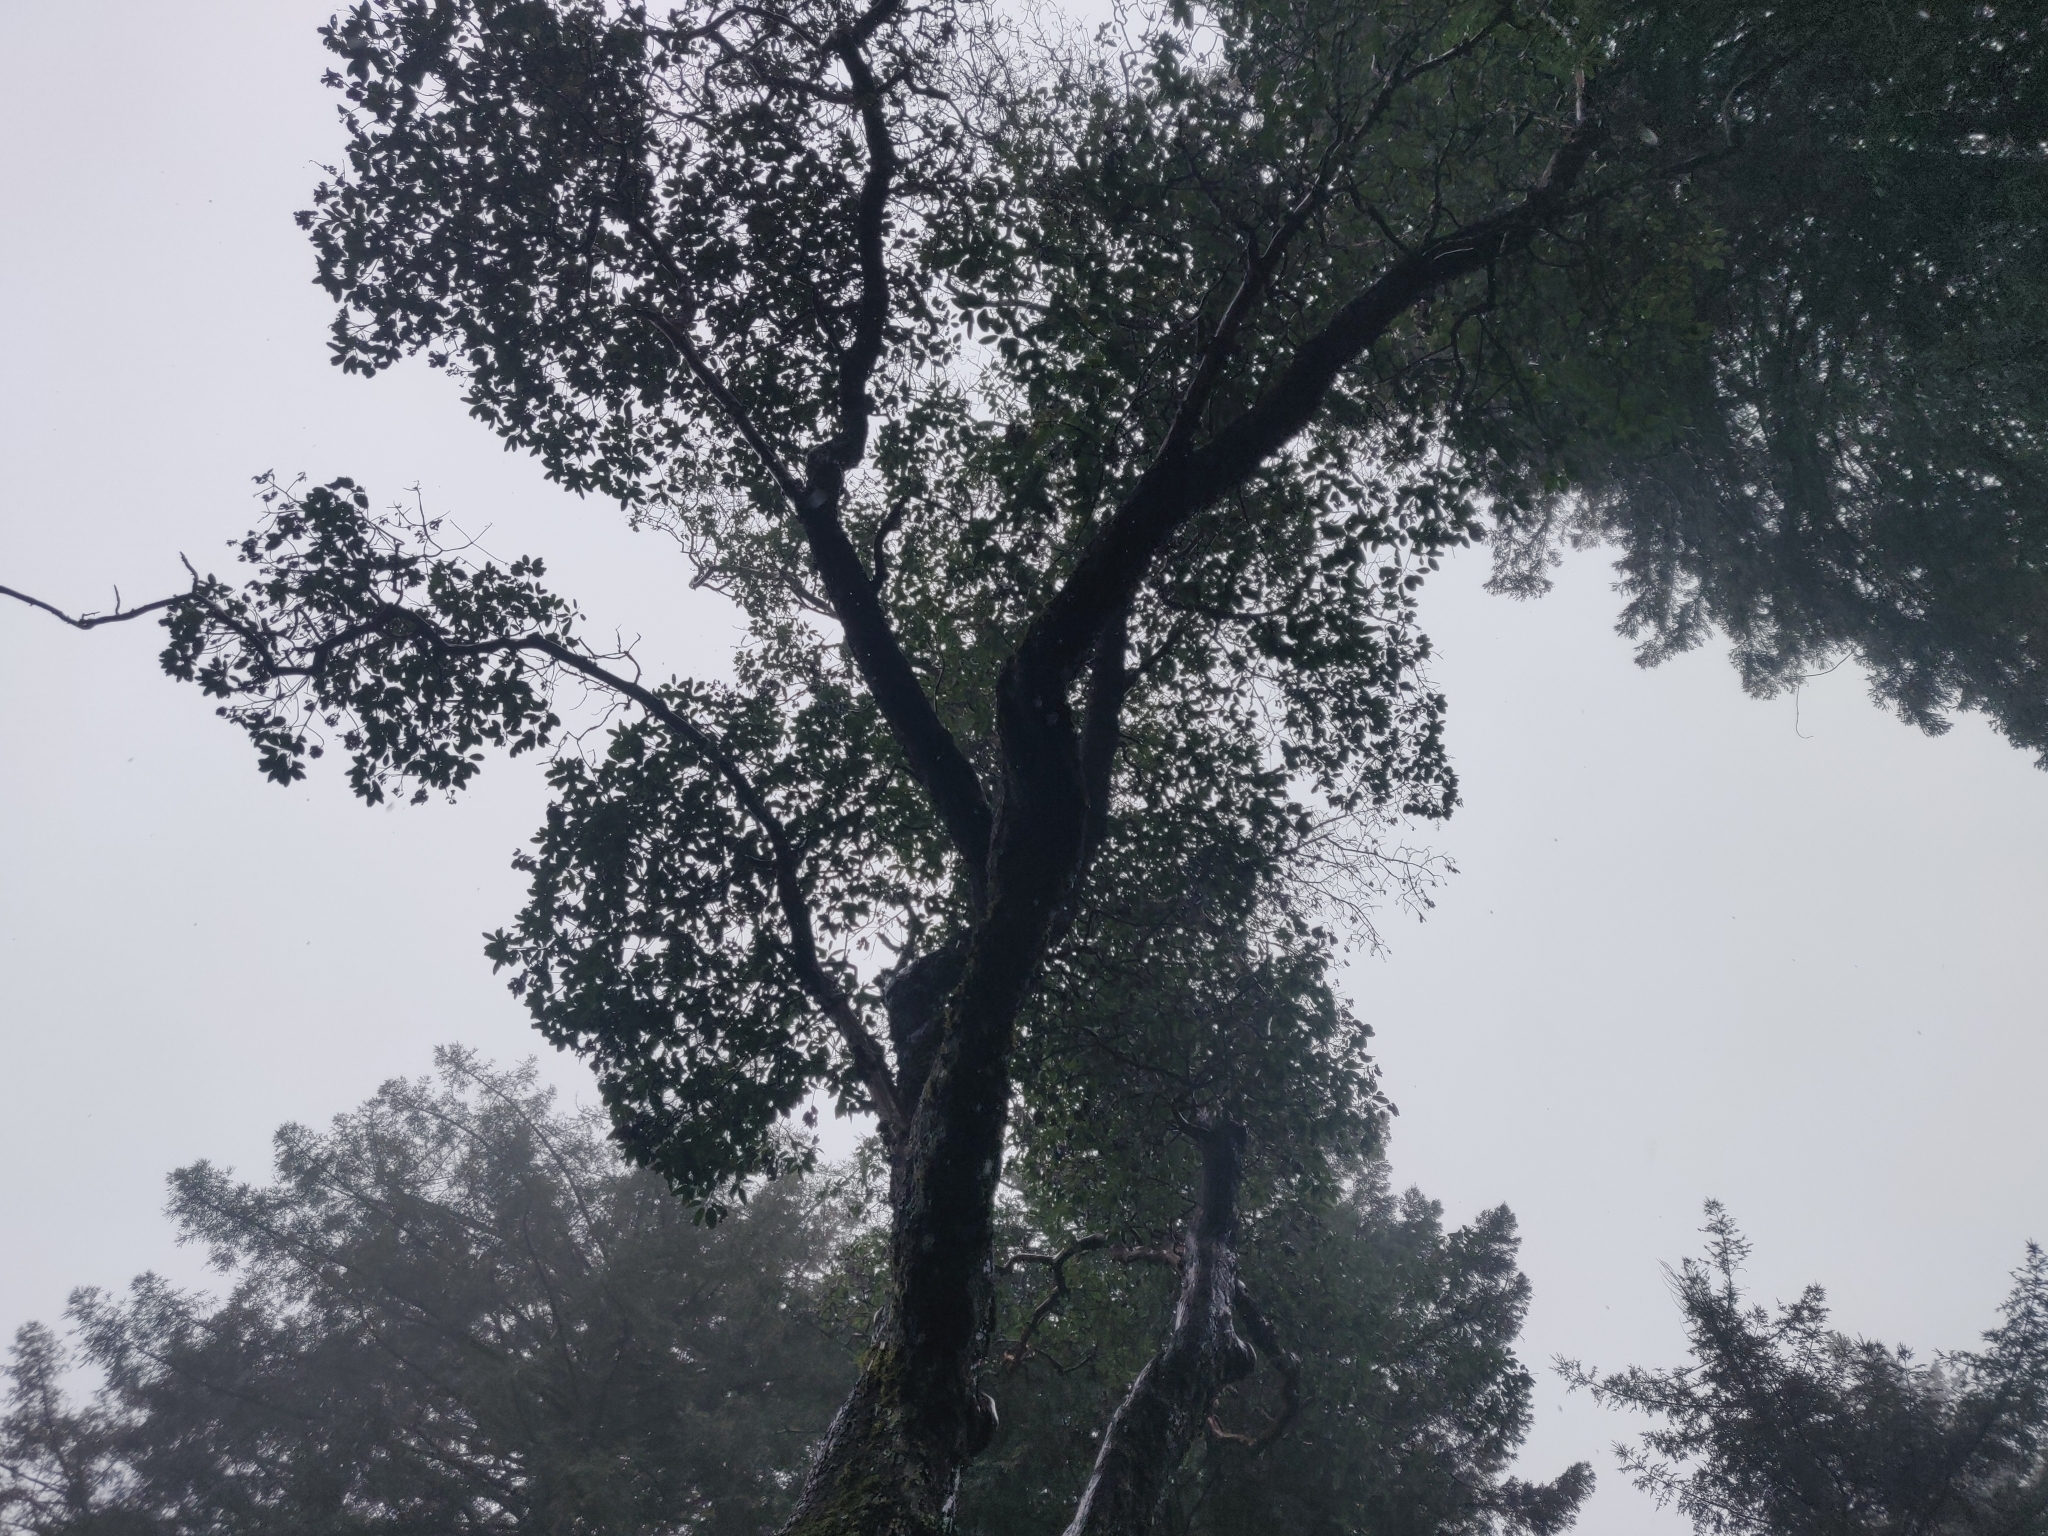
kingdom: Plantae
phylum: Tracheophyta
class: Magnoliopsida
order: Ericales
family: Ericaceae
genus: Arbutus
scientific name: Arbutus menziesii
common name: Pacific madrone
